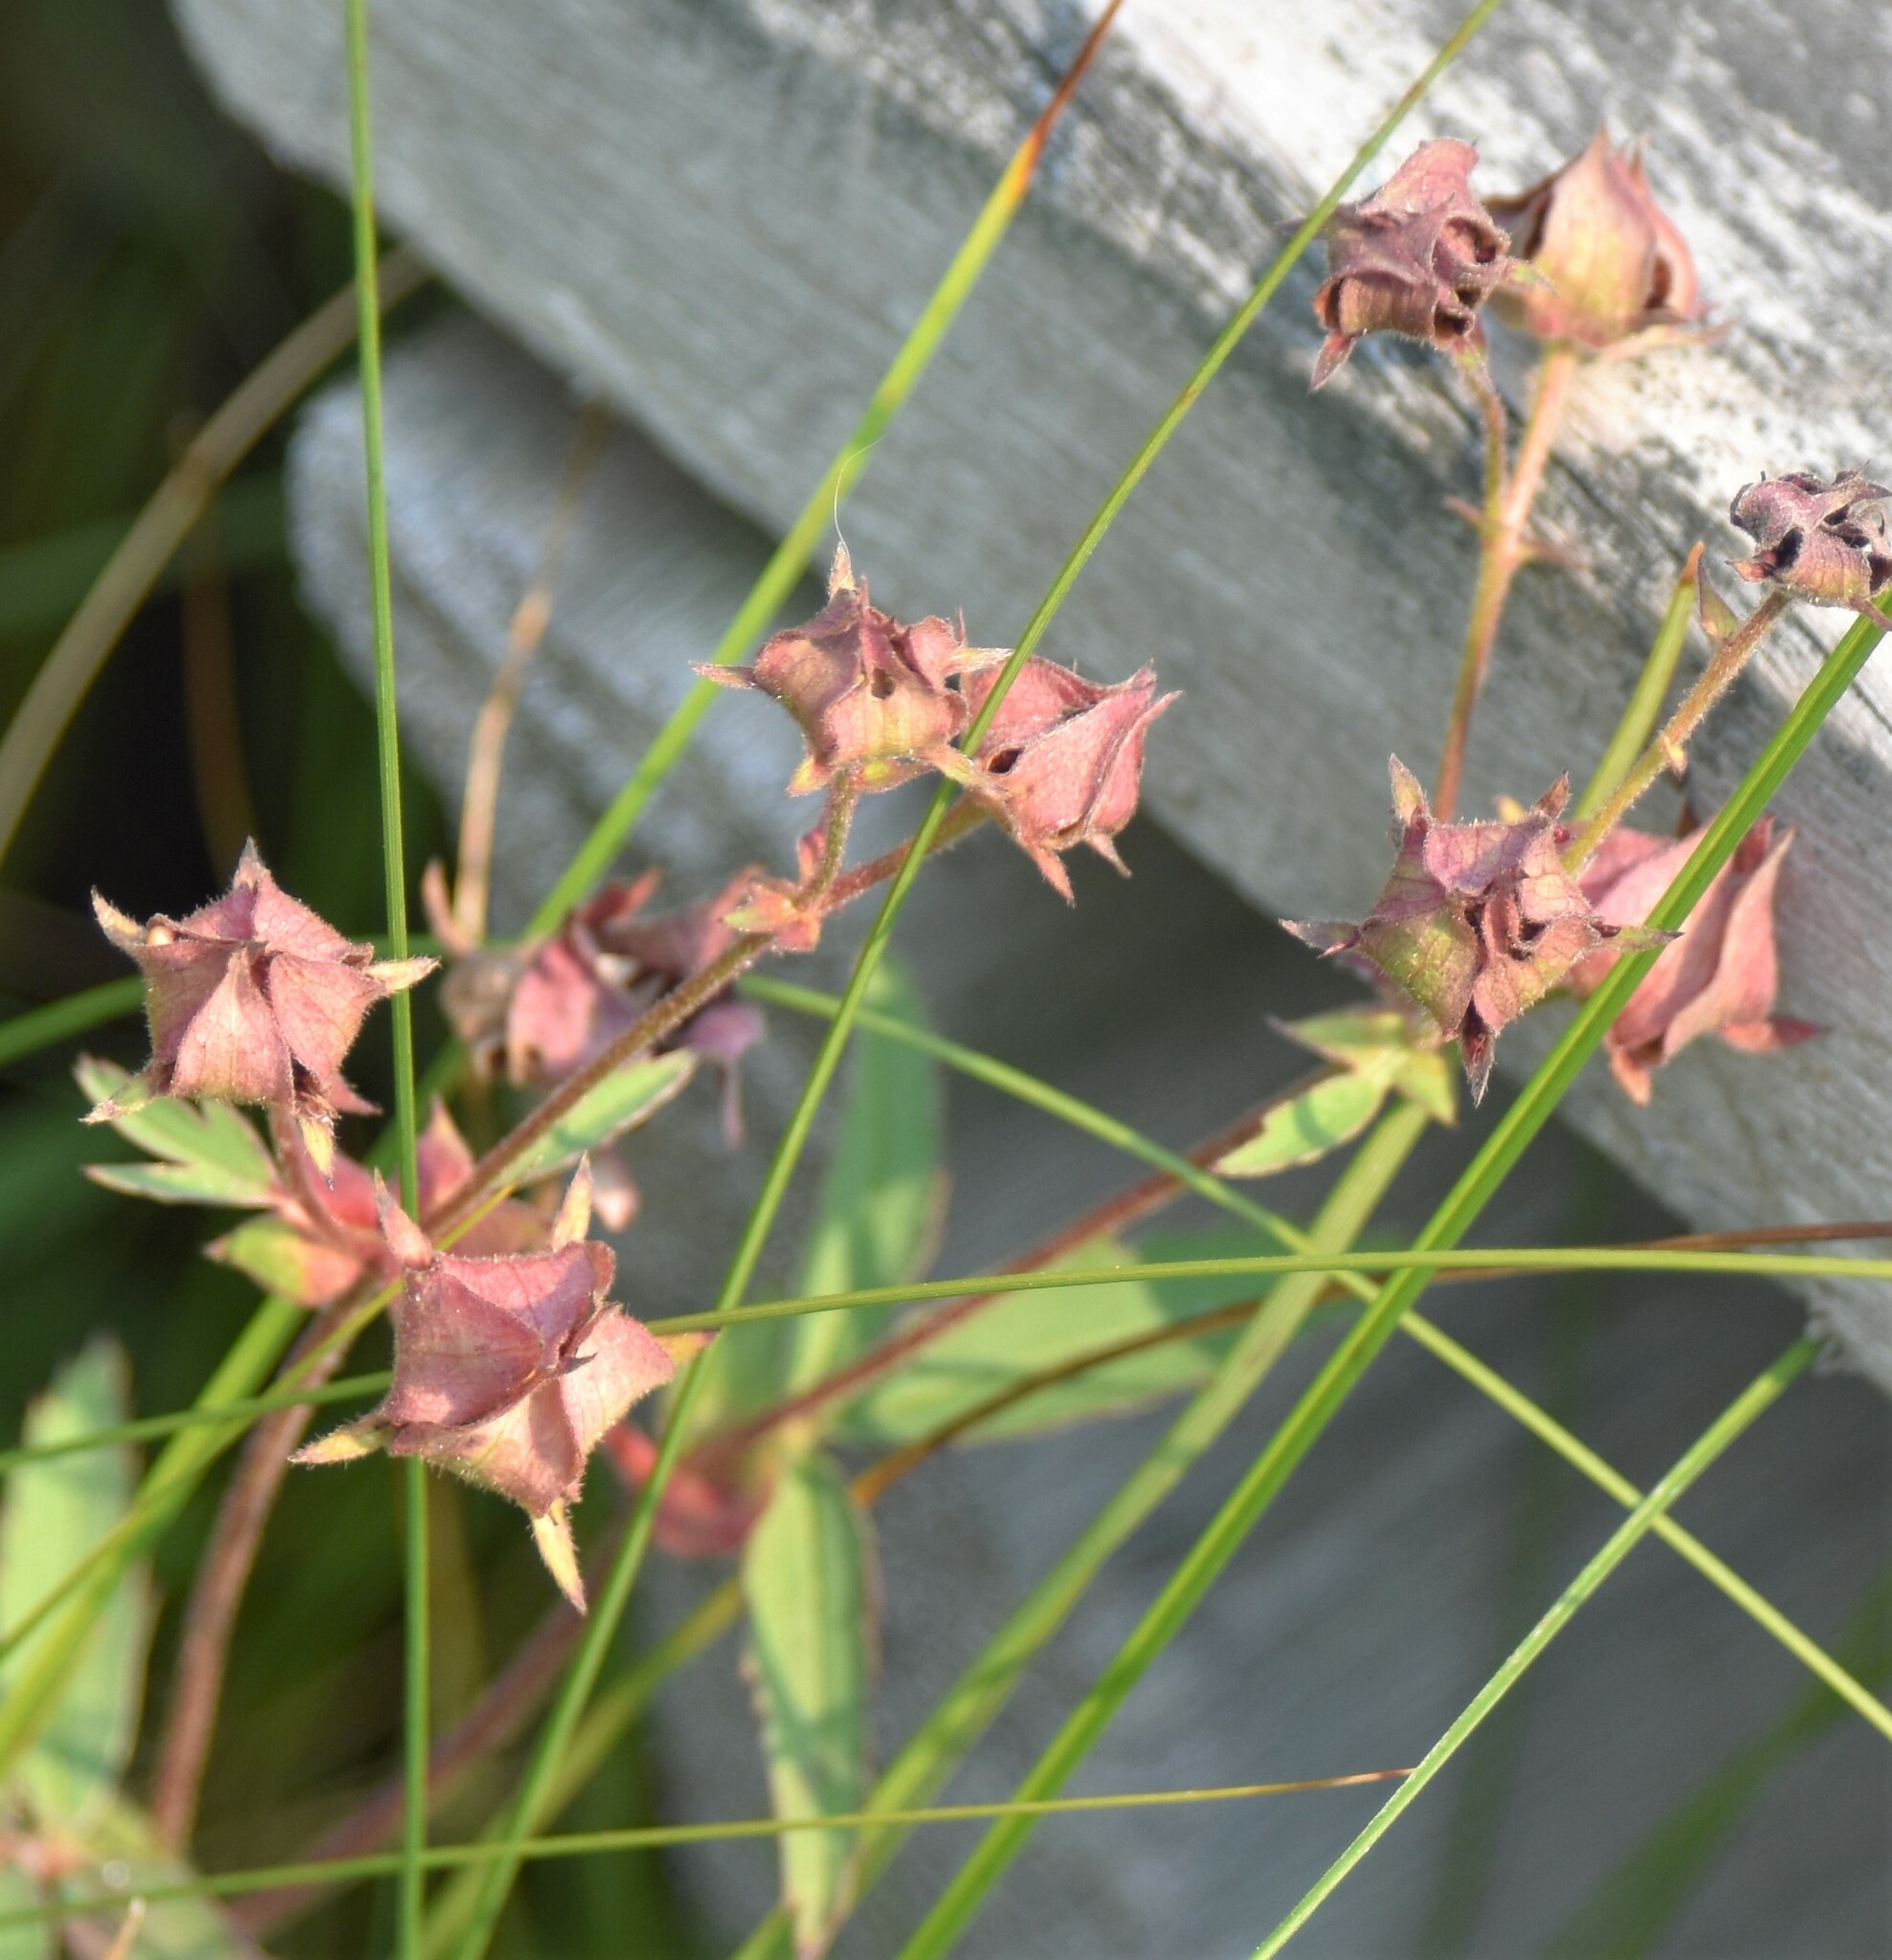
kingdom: Plantae
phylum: Tracheophyta
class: Magnoliopsida
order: Rosales
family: Rosaceae
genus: Comarum
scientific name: Comarum palustre
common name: Marsh cinquefoil
